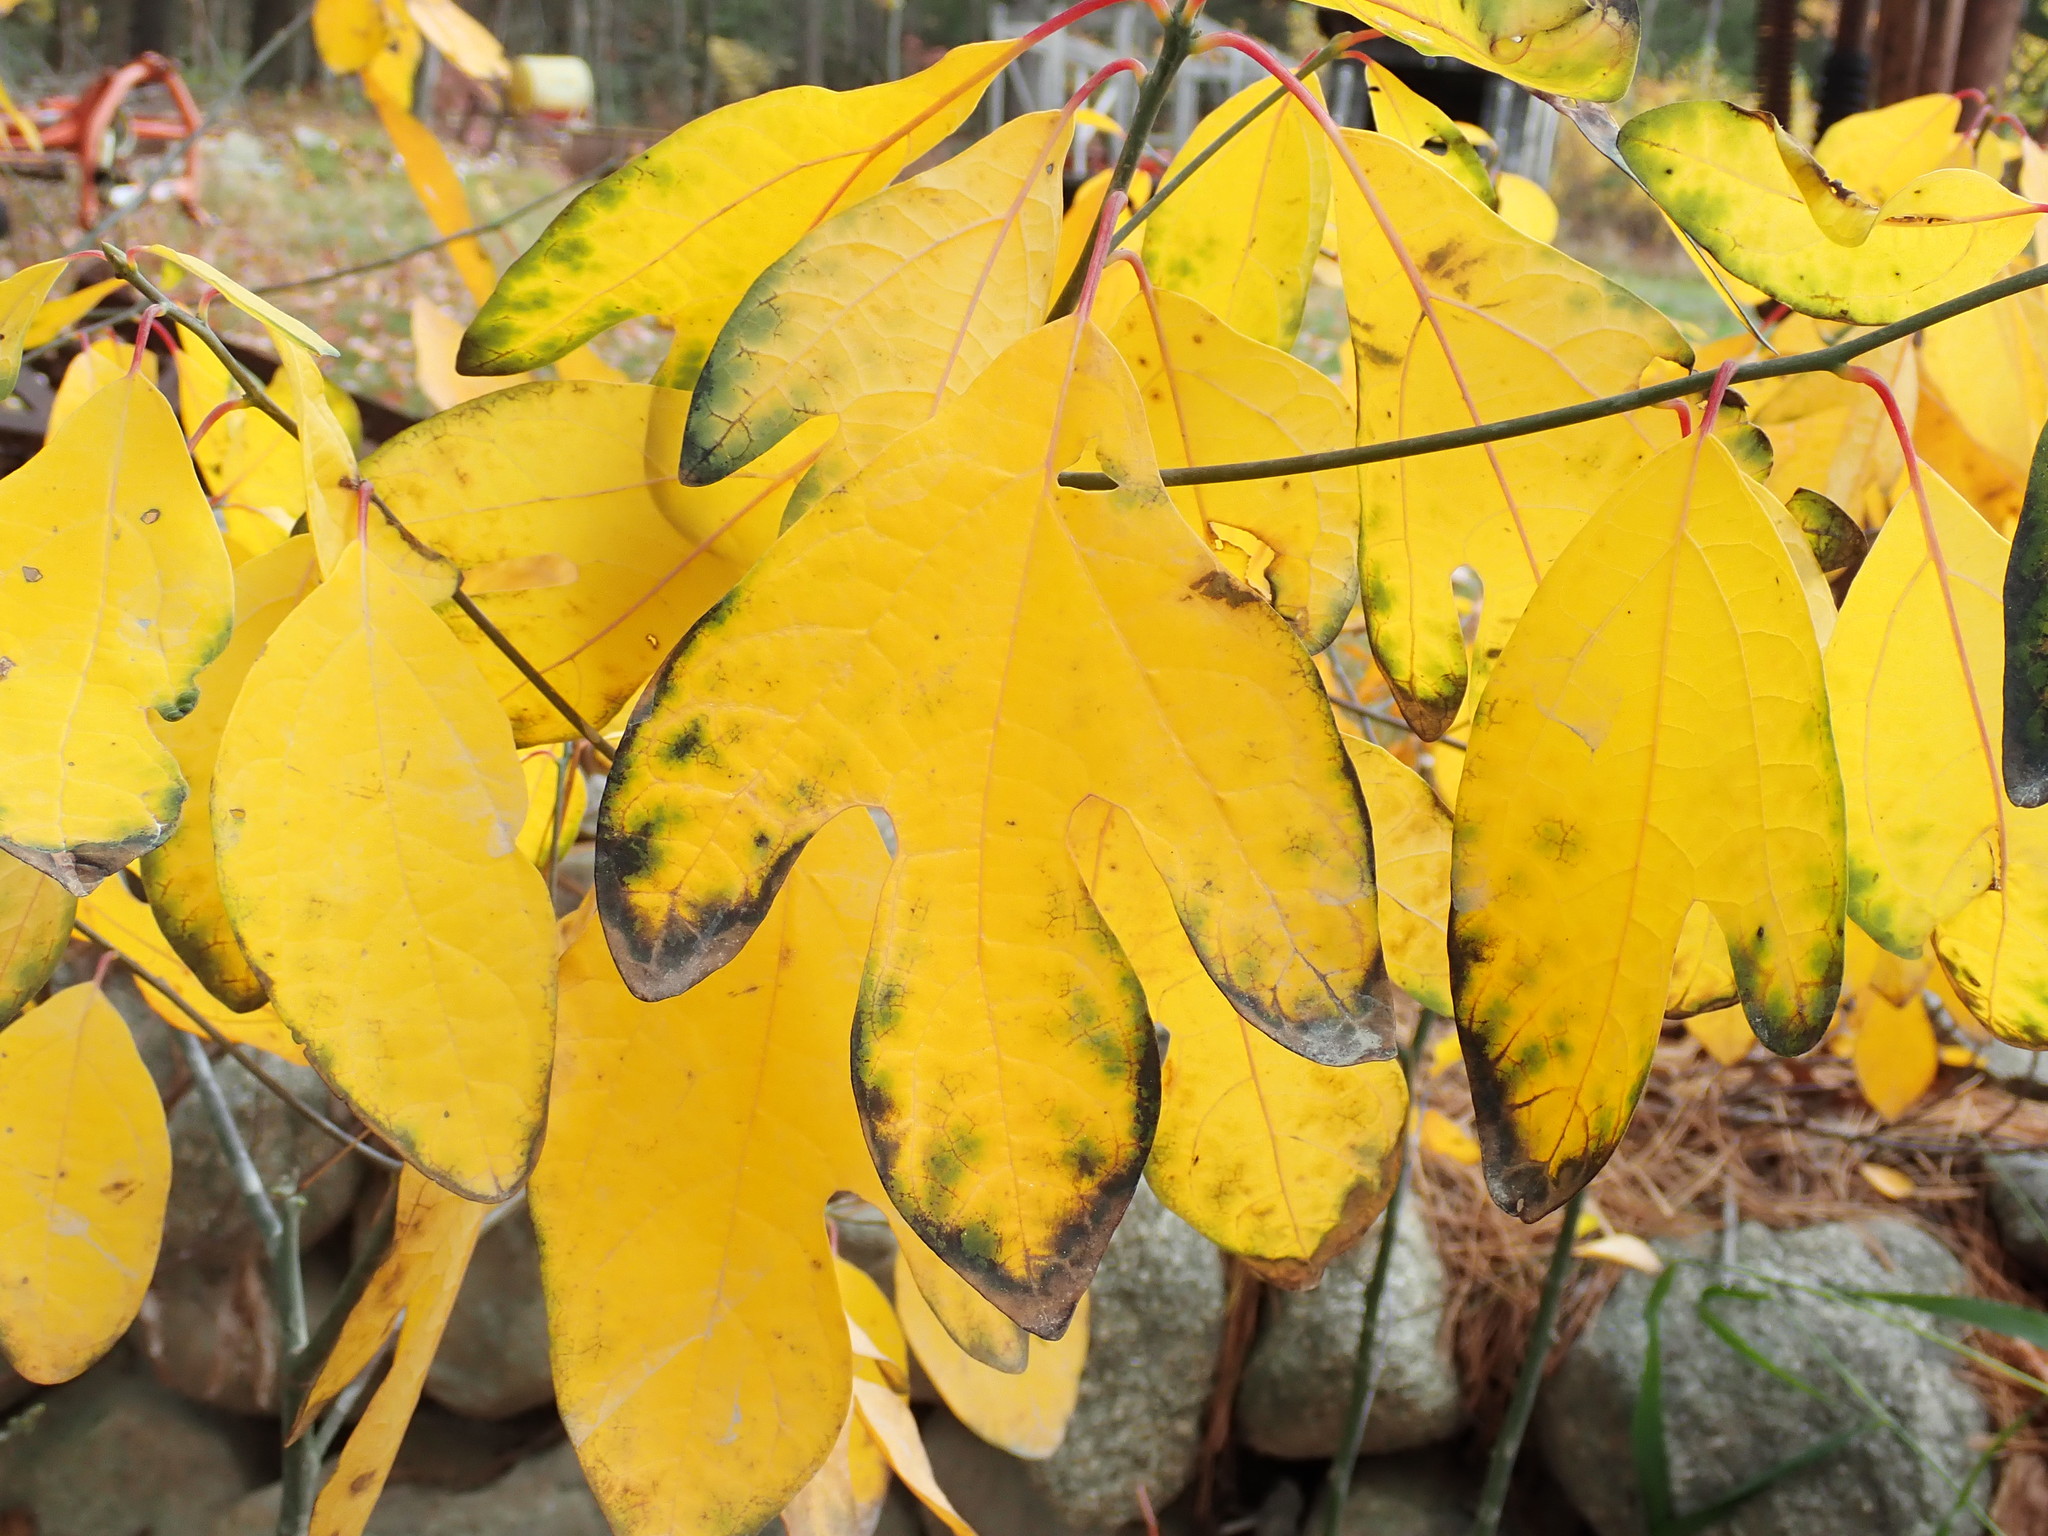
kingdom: Plantae
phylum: Tracheophyta
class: Magnoliopsida
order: Laurales
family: Lauraceae
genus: Sassafras
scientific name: Sassafras albidum
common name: Sassafras
